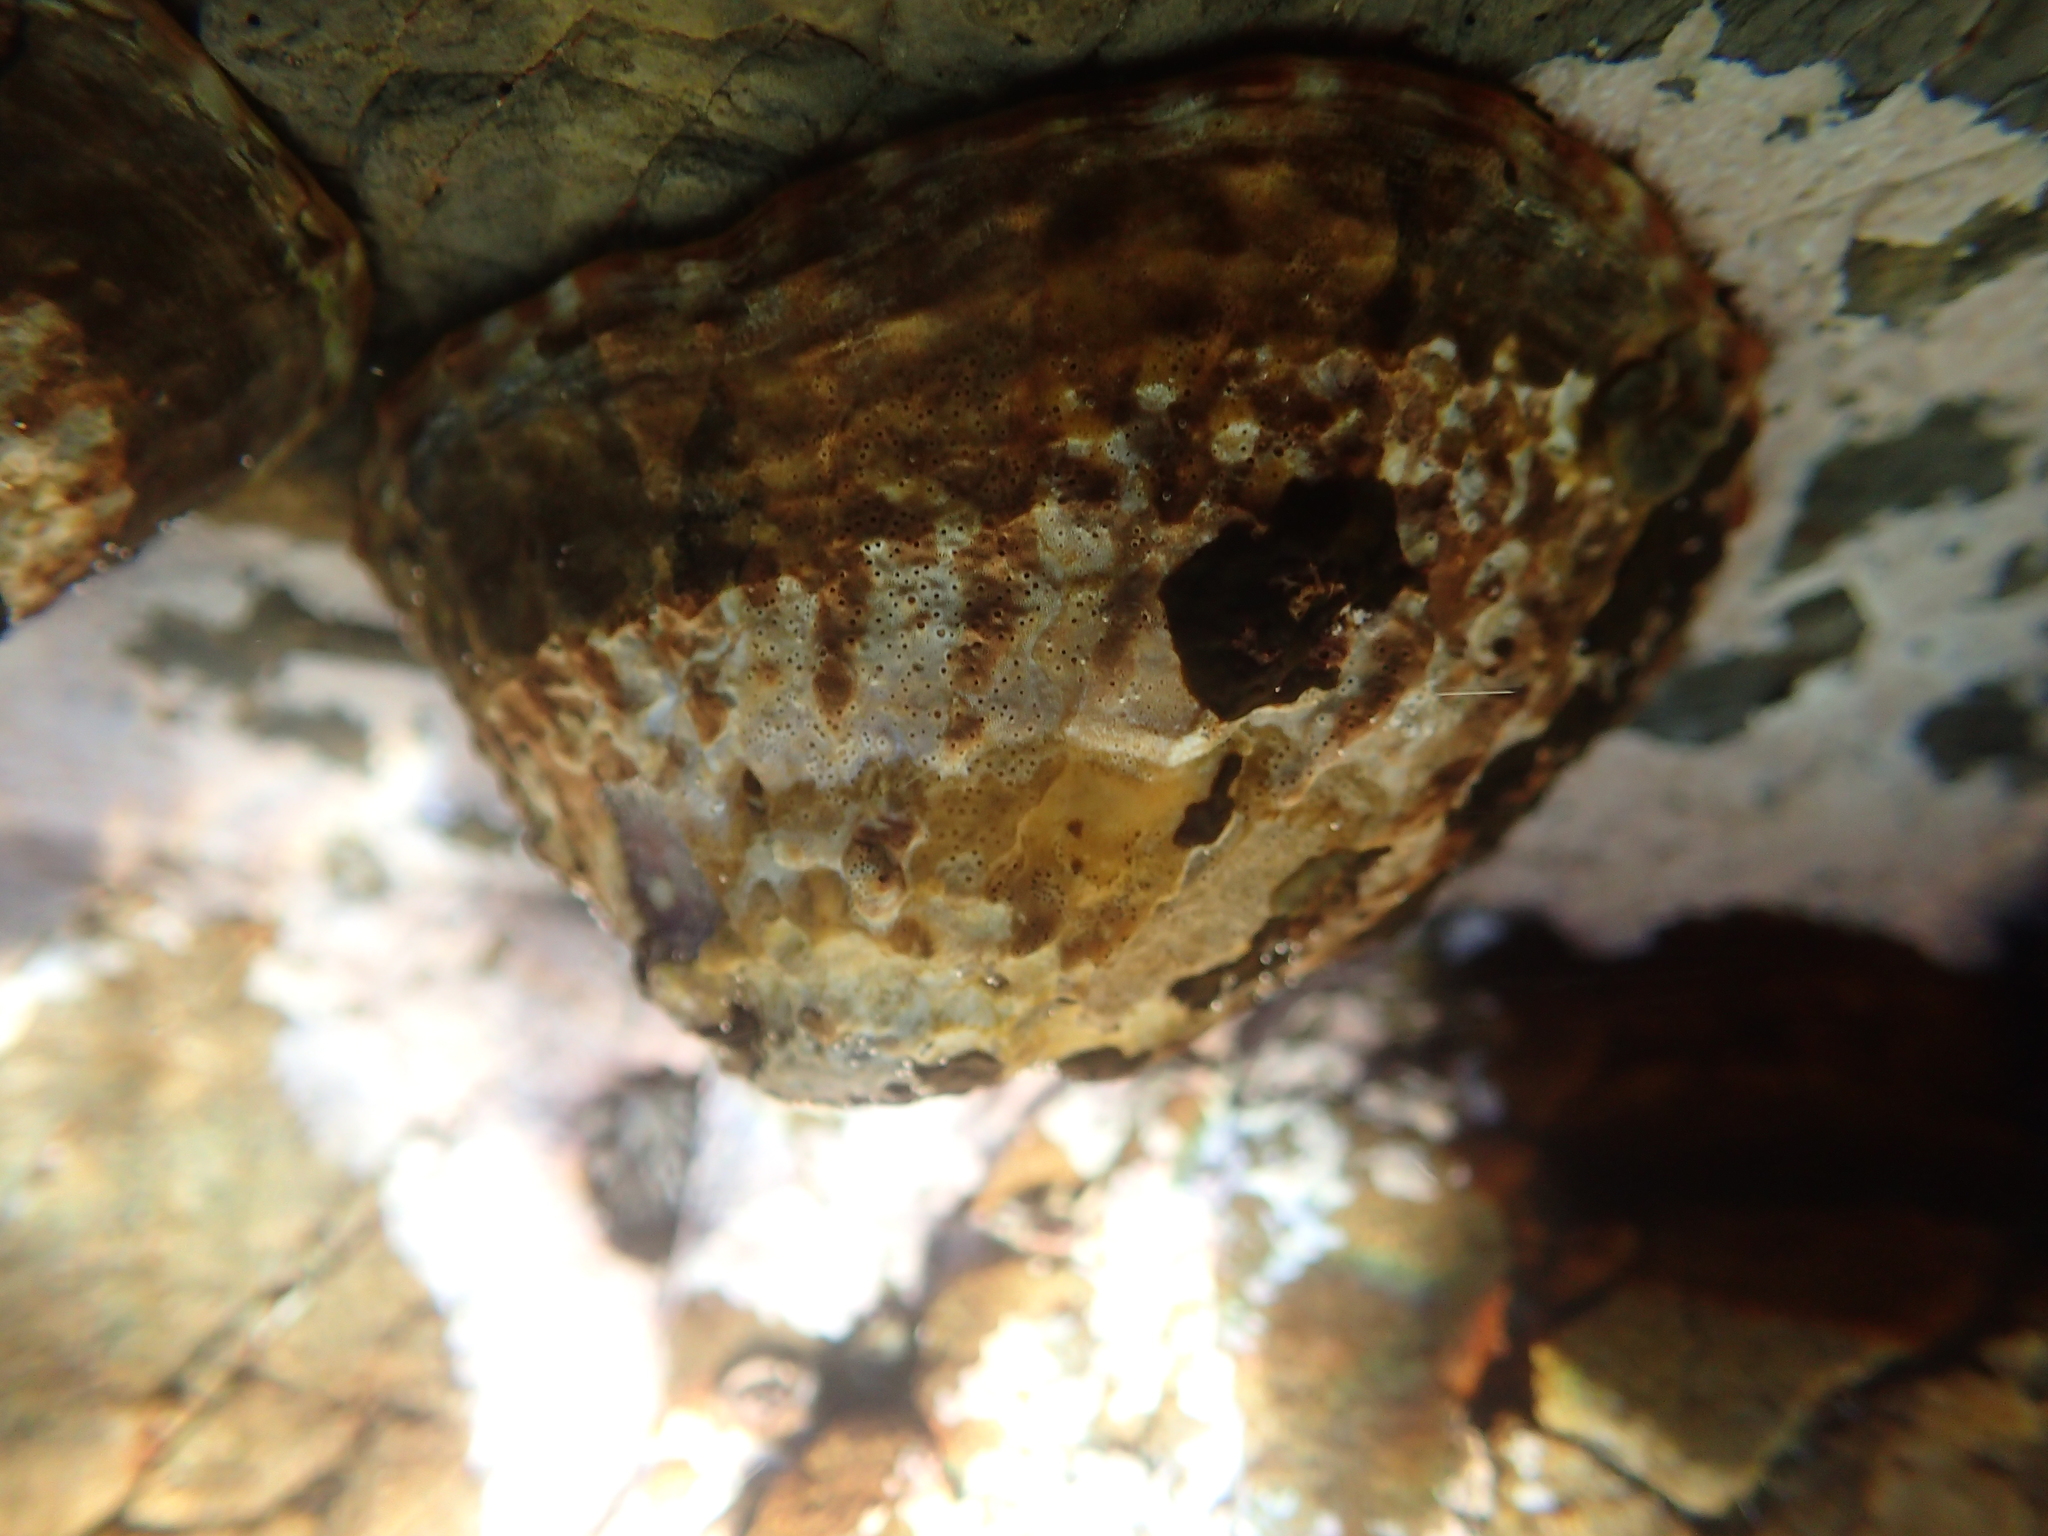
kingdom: Animalia
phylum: Mollusca
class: Gastropoda
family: Nacellidae
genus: Cellana
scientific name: Cellana denticulata
